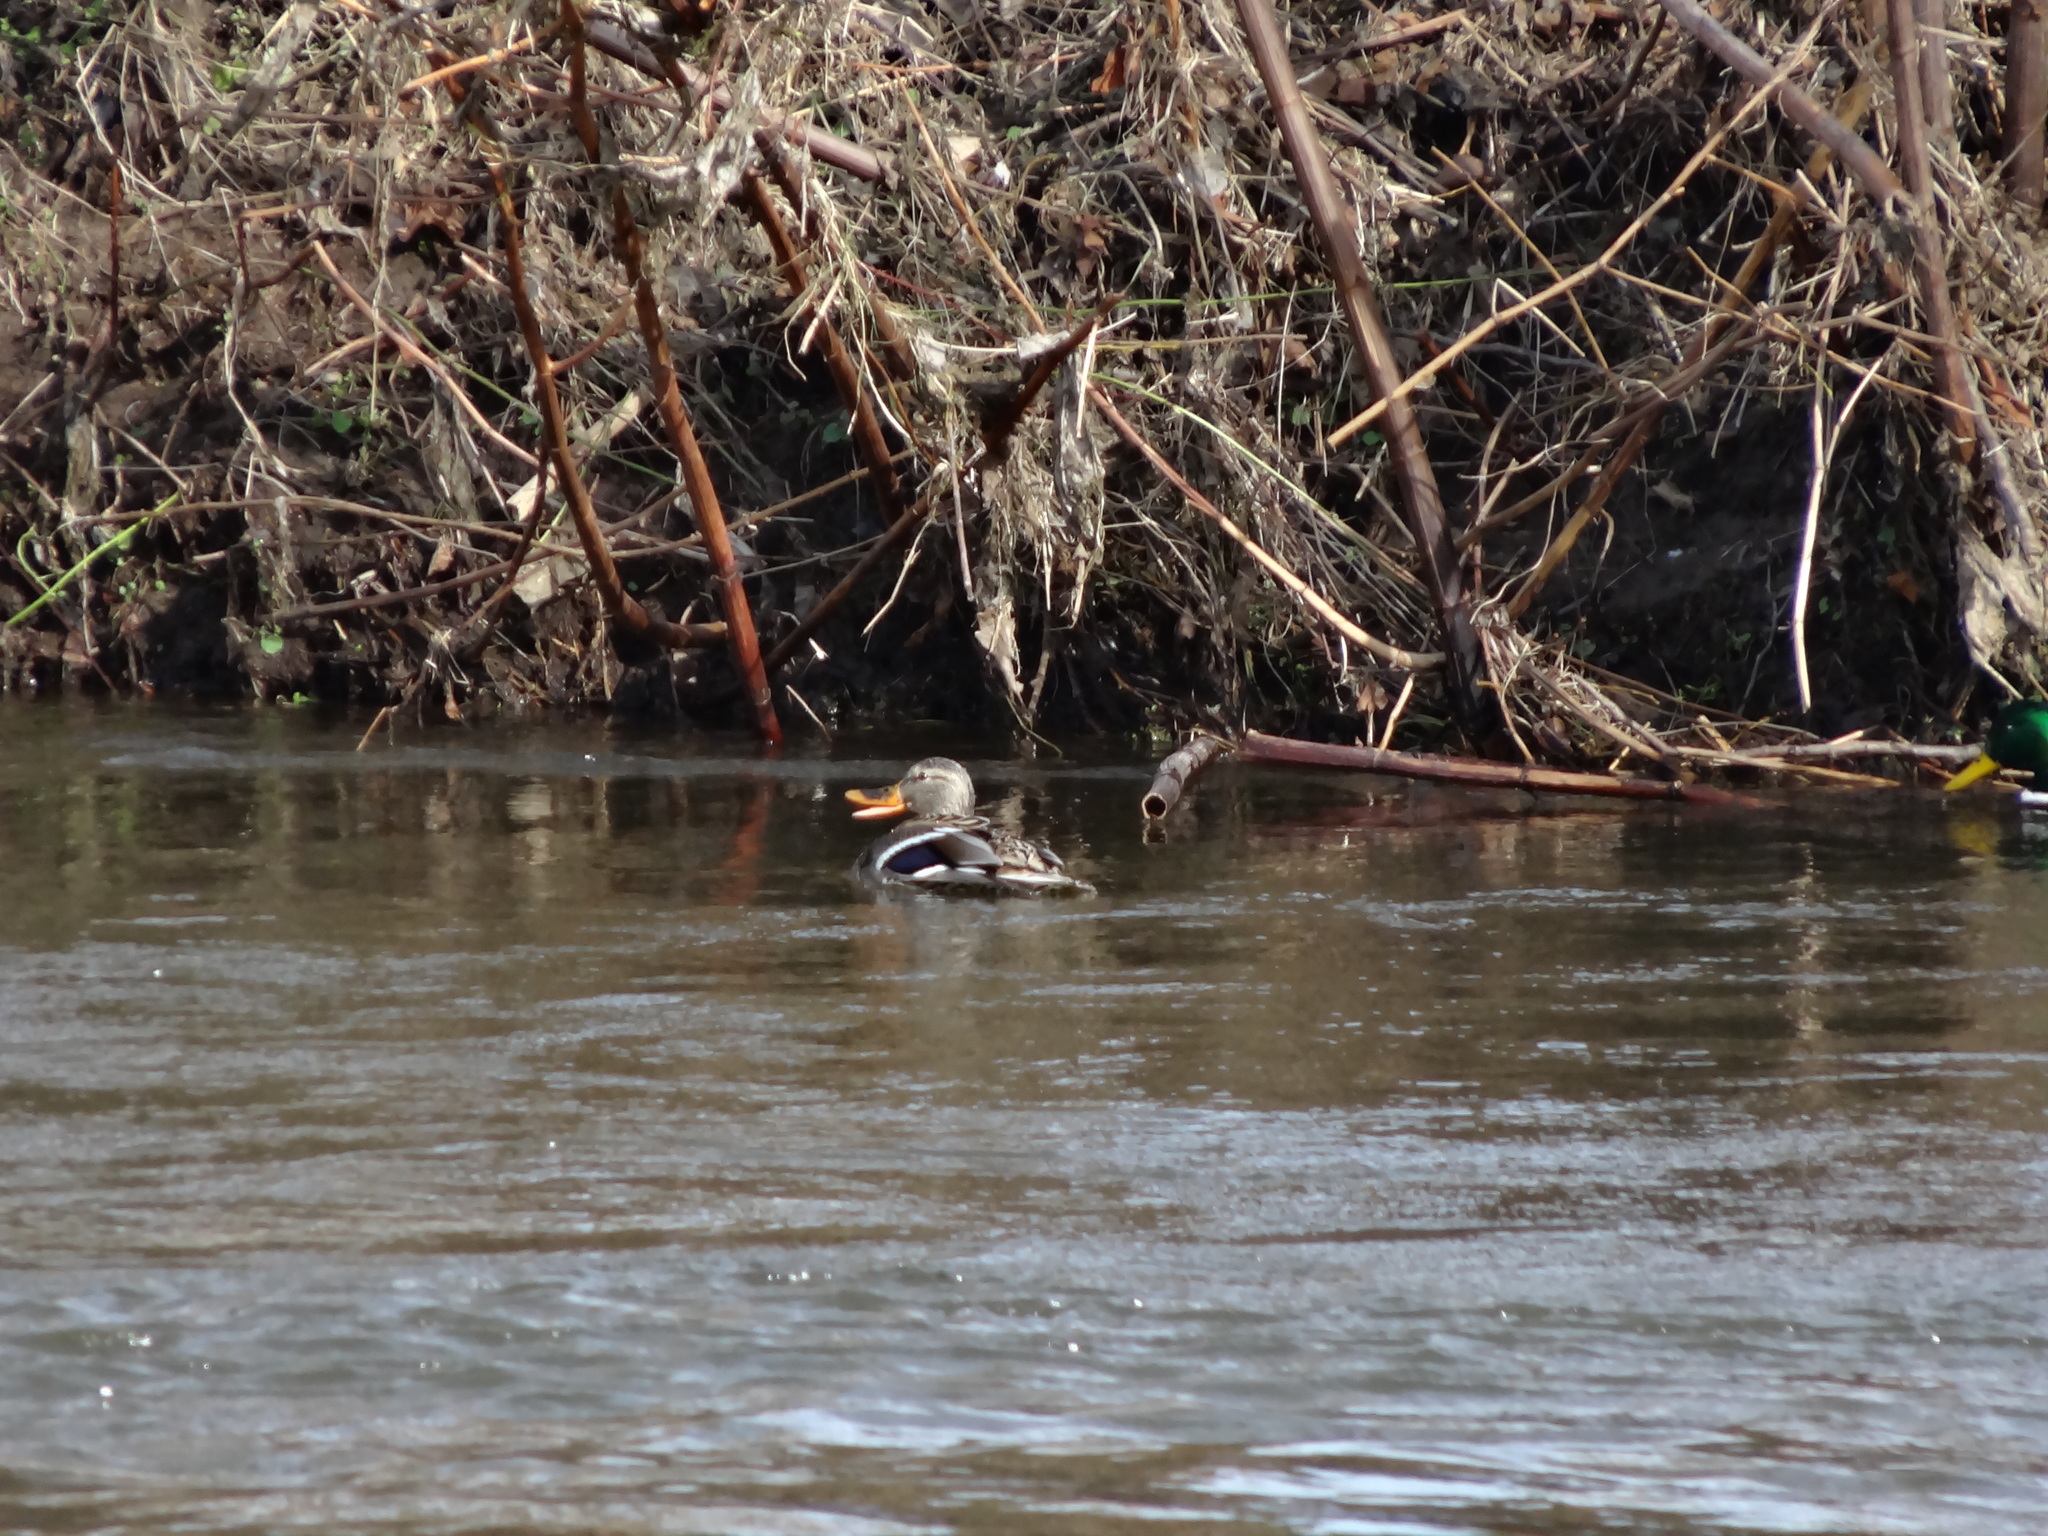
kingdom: Animalia
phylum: Chordata
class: Aves
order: Anseriformes
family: Anatidae
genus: Anas
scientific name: Anas platyrhynchos
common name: Mallard
